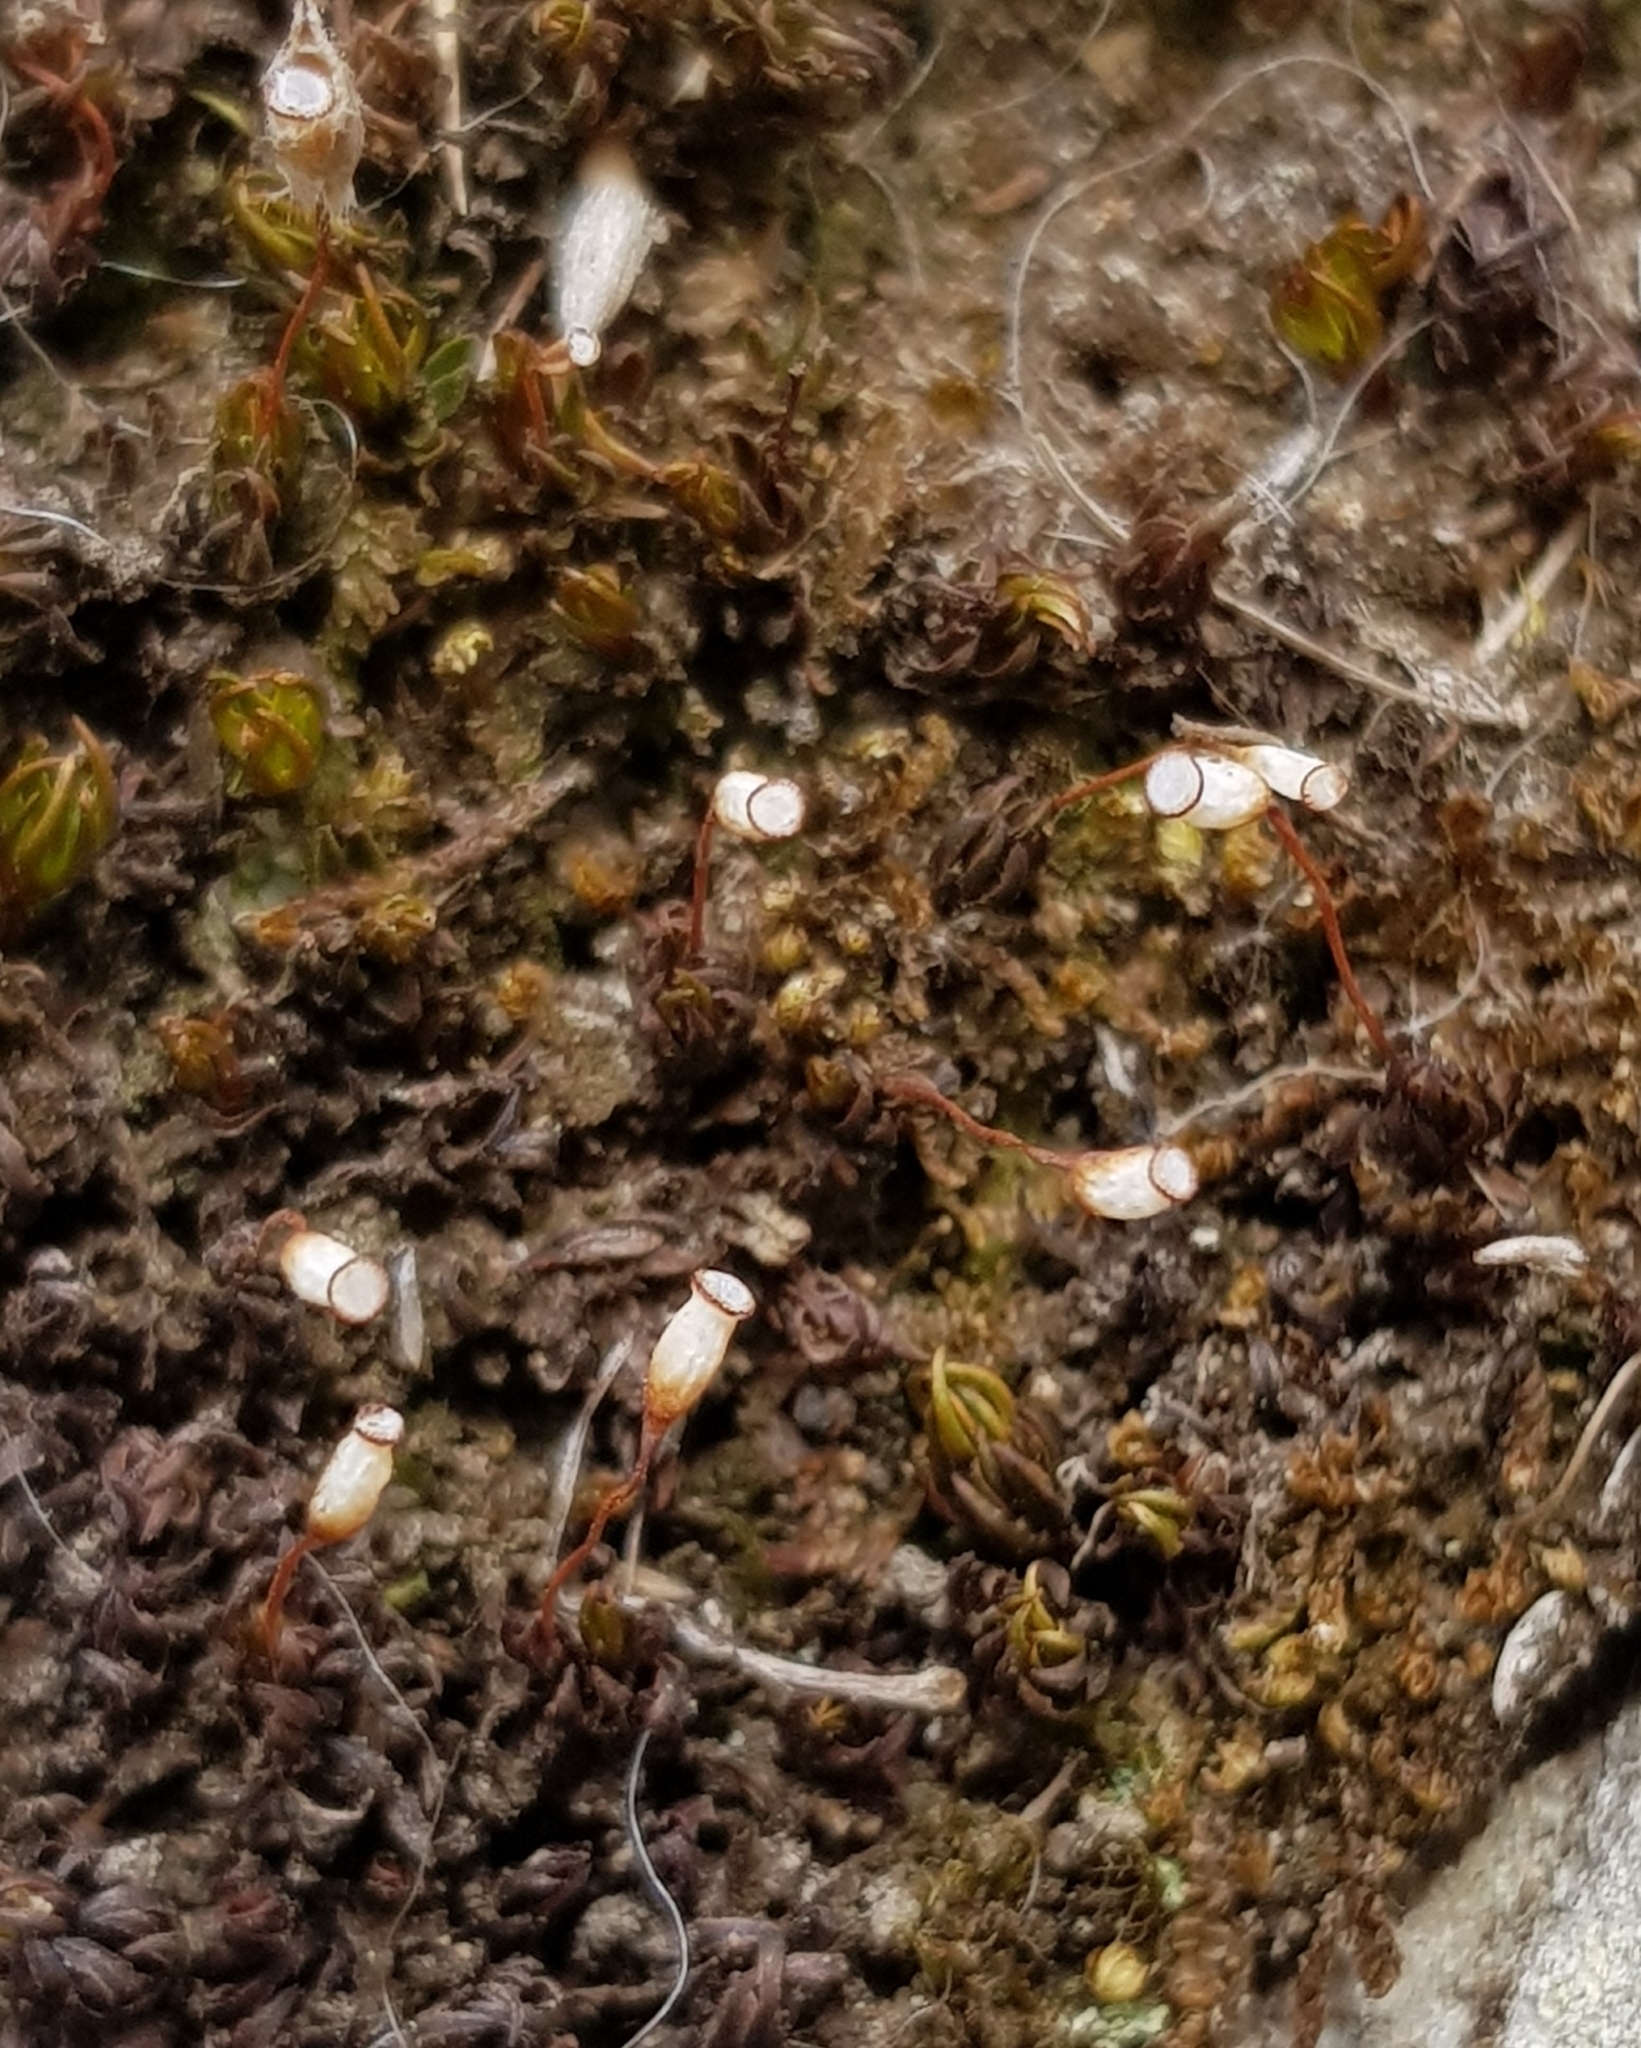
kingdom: Plantae
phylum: Bryophyta
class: Polytrichopsida
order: Polytrichales
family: Polytrichaceae
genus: Pogonatum
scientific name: Pogonatum aloides
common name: Aloe haircap
